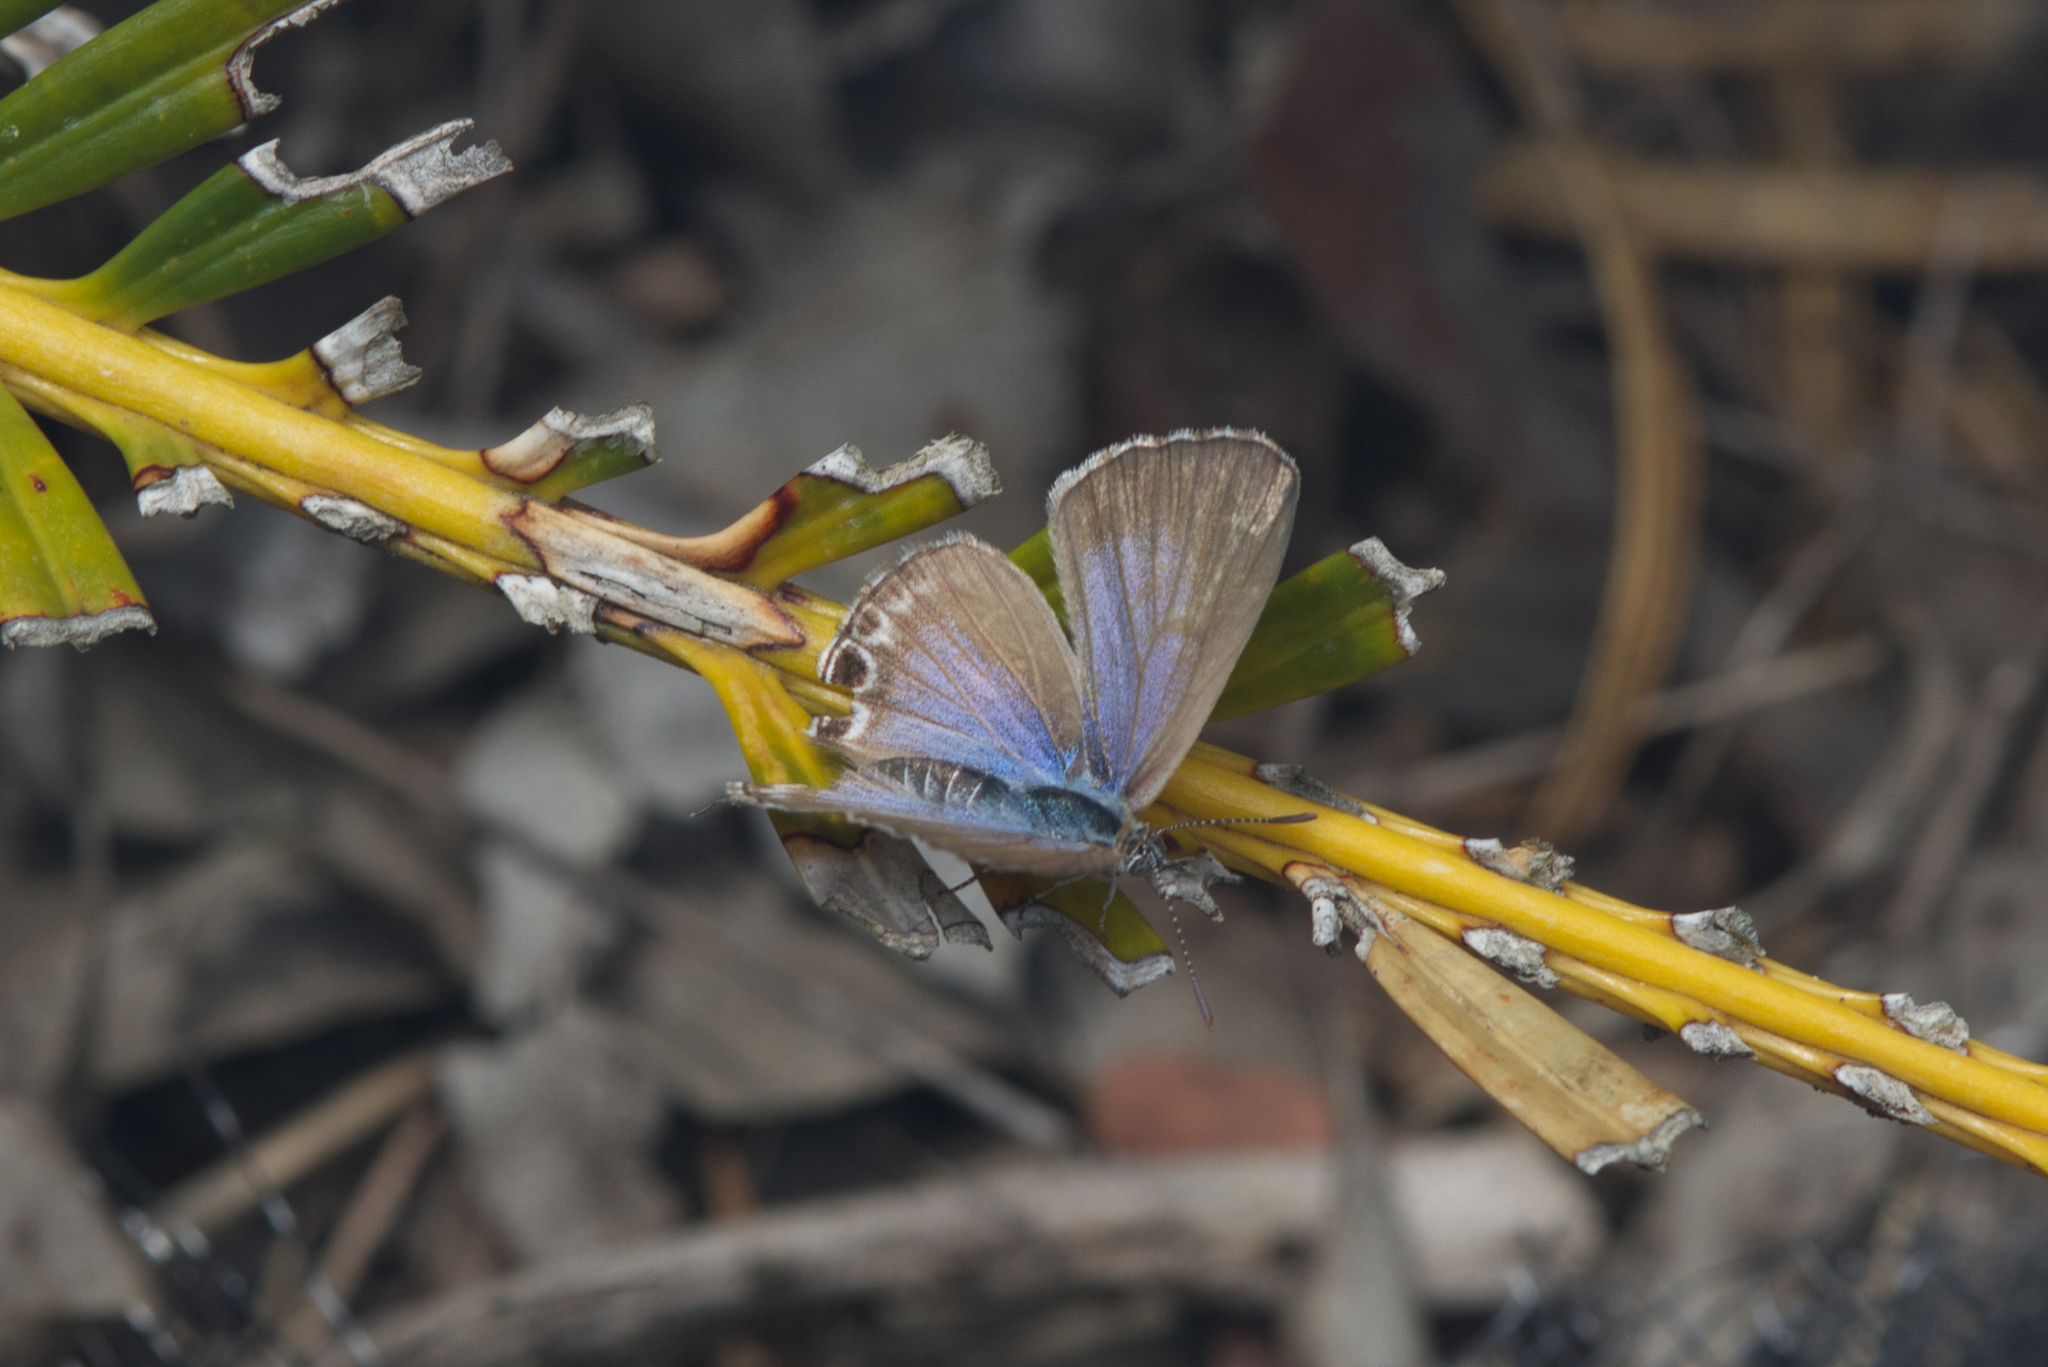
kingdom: Animalia
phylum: Arthropoda
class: Insecta
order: Lepidoptera
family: Lycaenidae
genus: Theclinesthes
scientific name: Theclinesthes onycha
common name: Cycad blue
